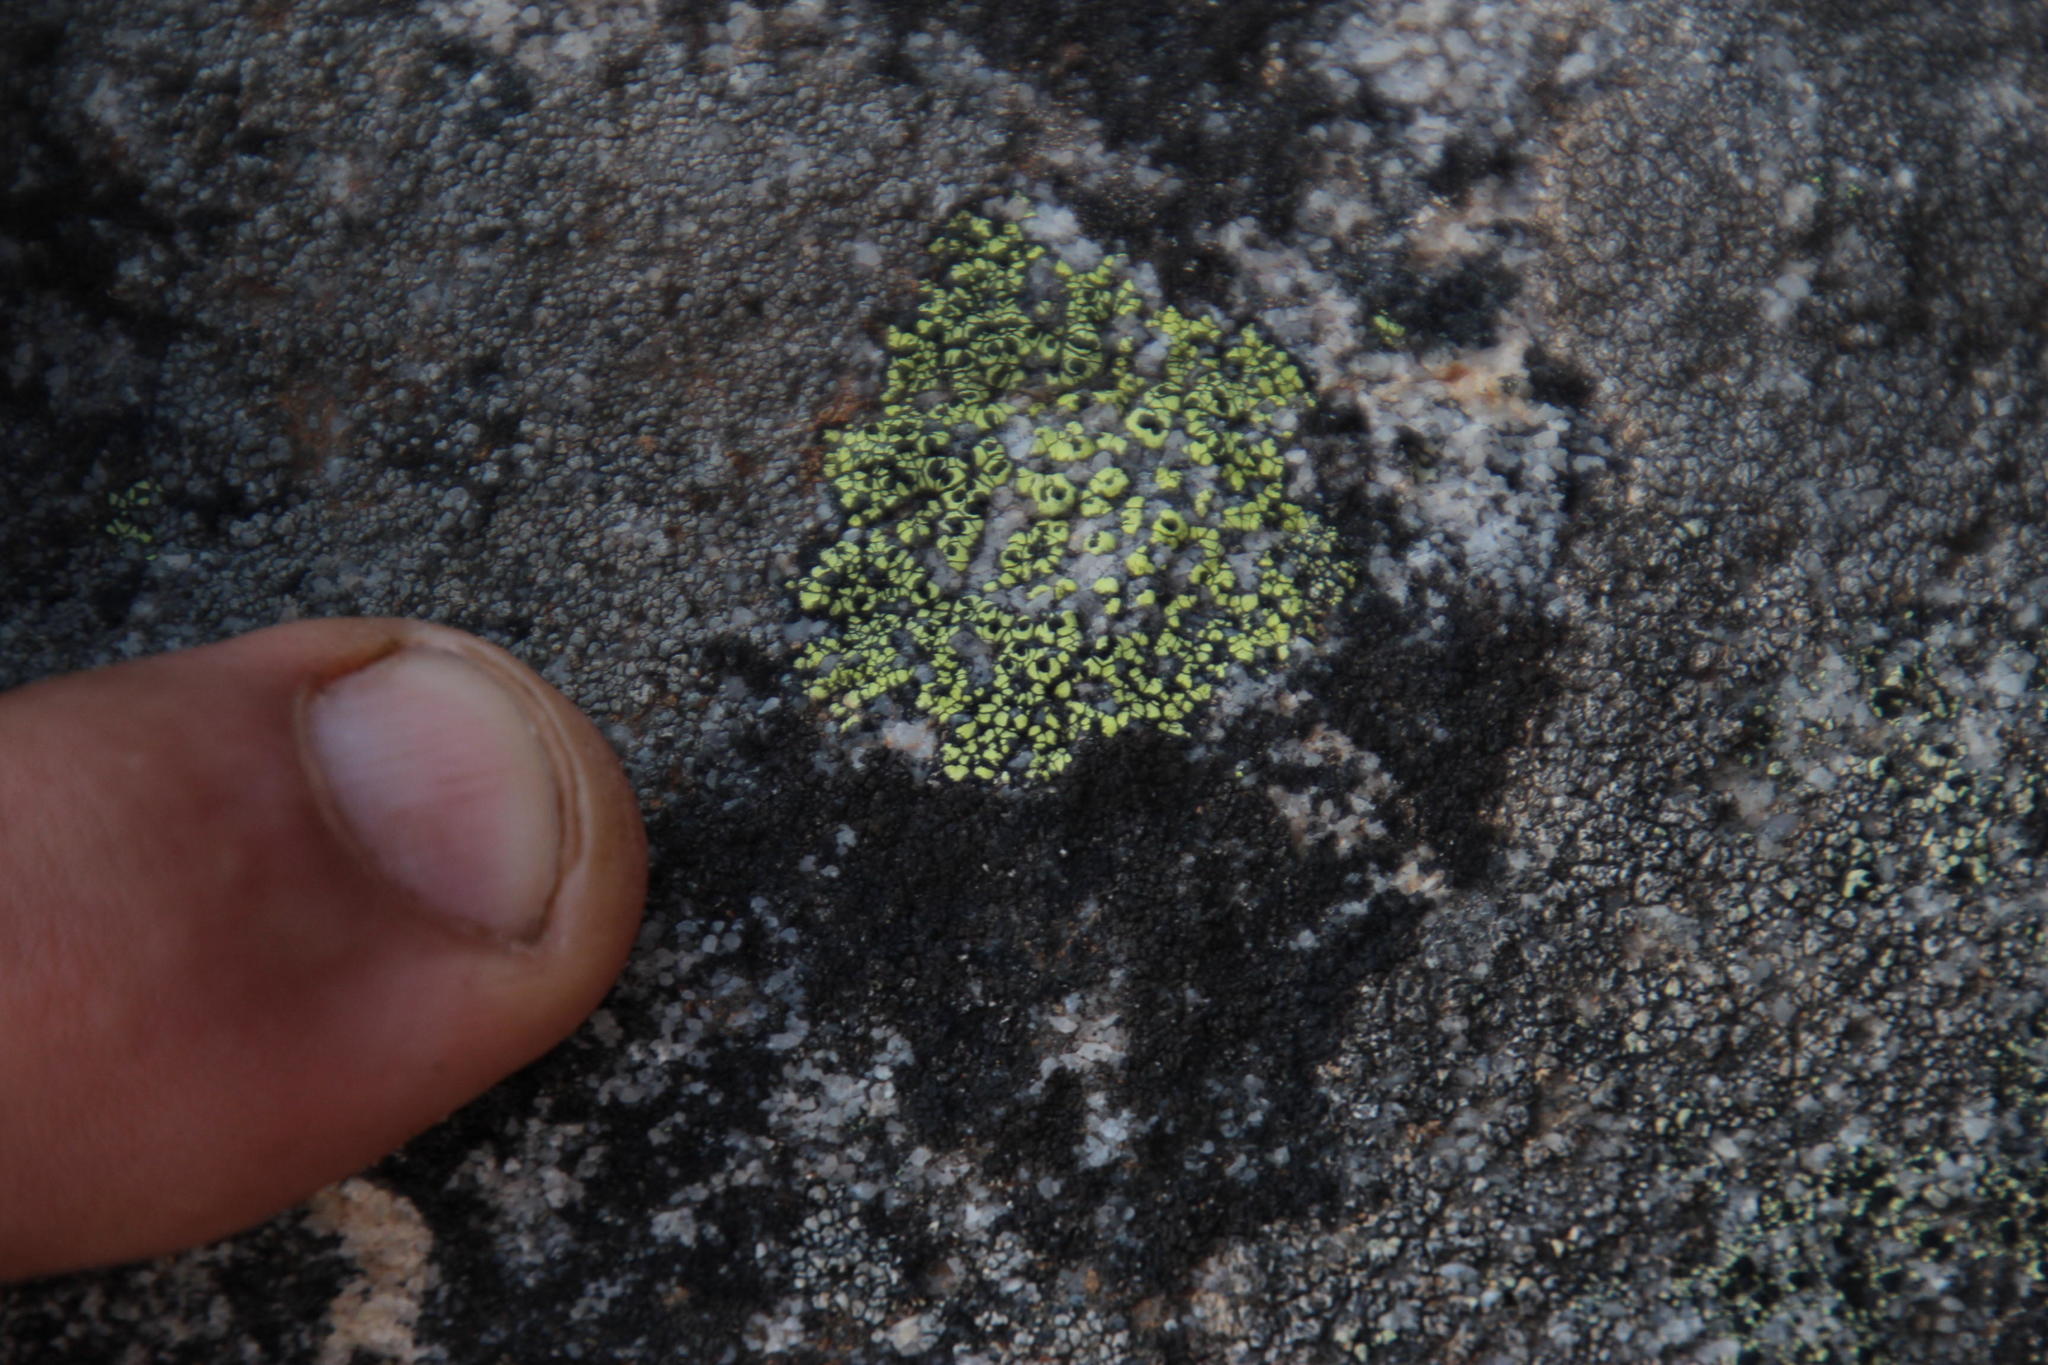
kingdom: Fungi
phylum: Ascomycota
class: Lecanoromycetes
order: Rhizocarpales
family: Rhizocarpaceae
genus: Rhizocarpon
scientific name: Rhizocarpon lecanorinum
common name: Crescent map lichen
